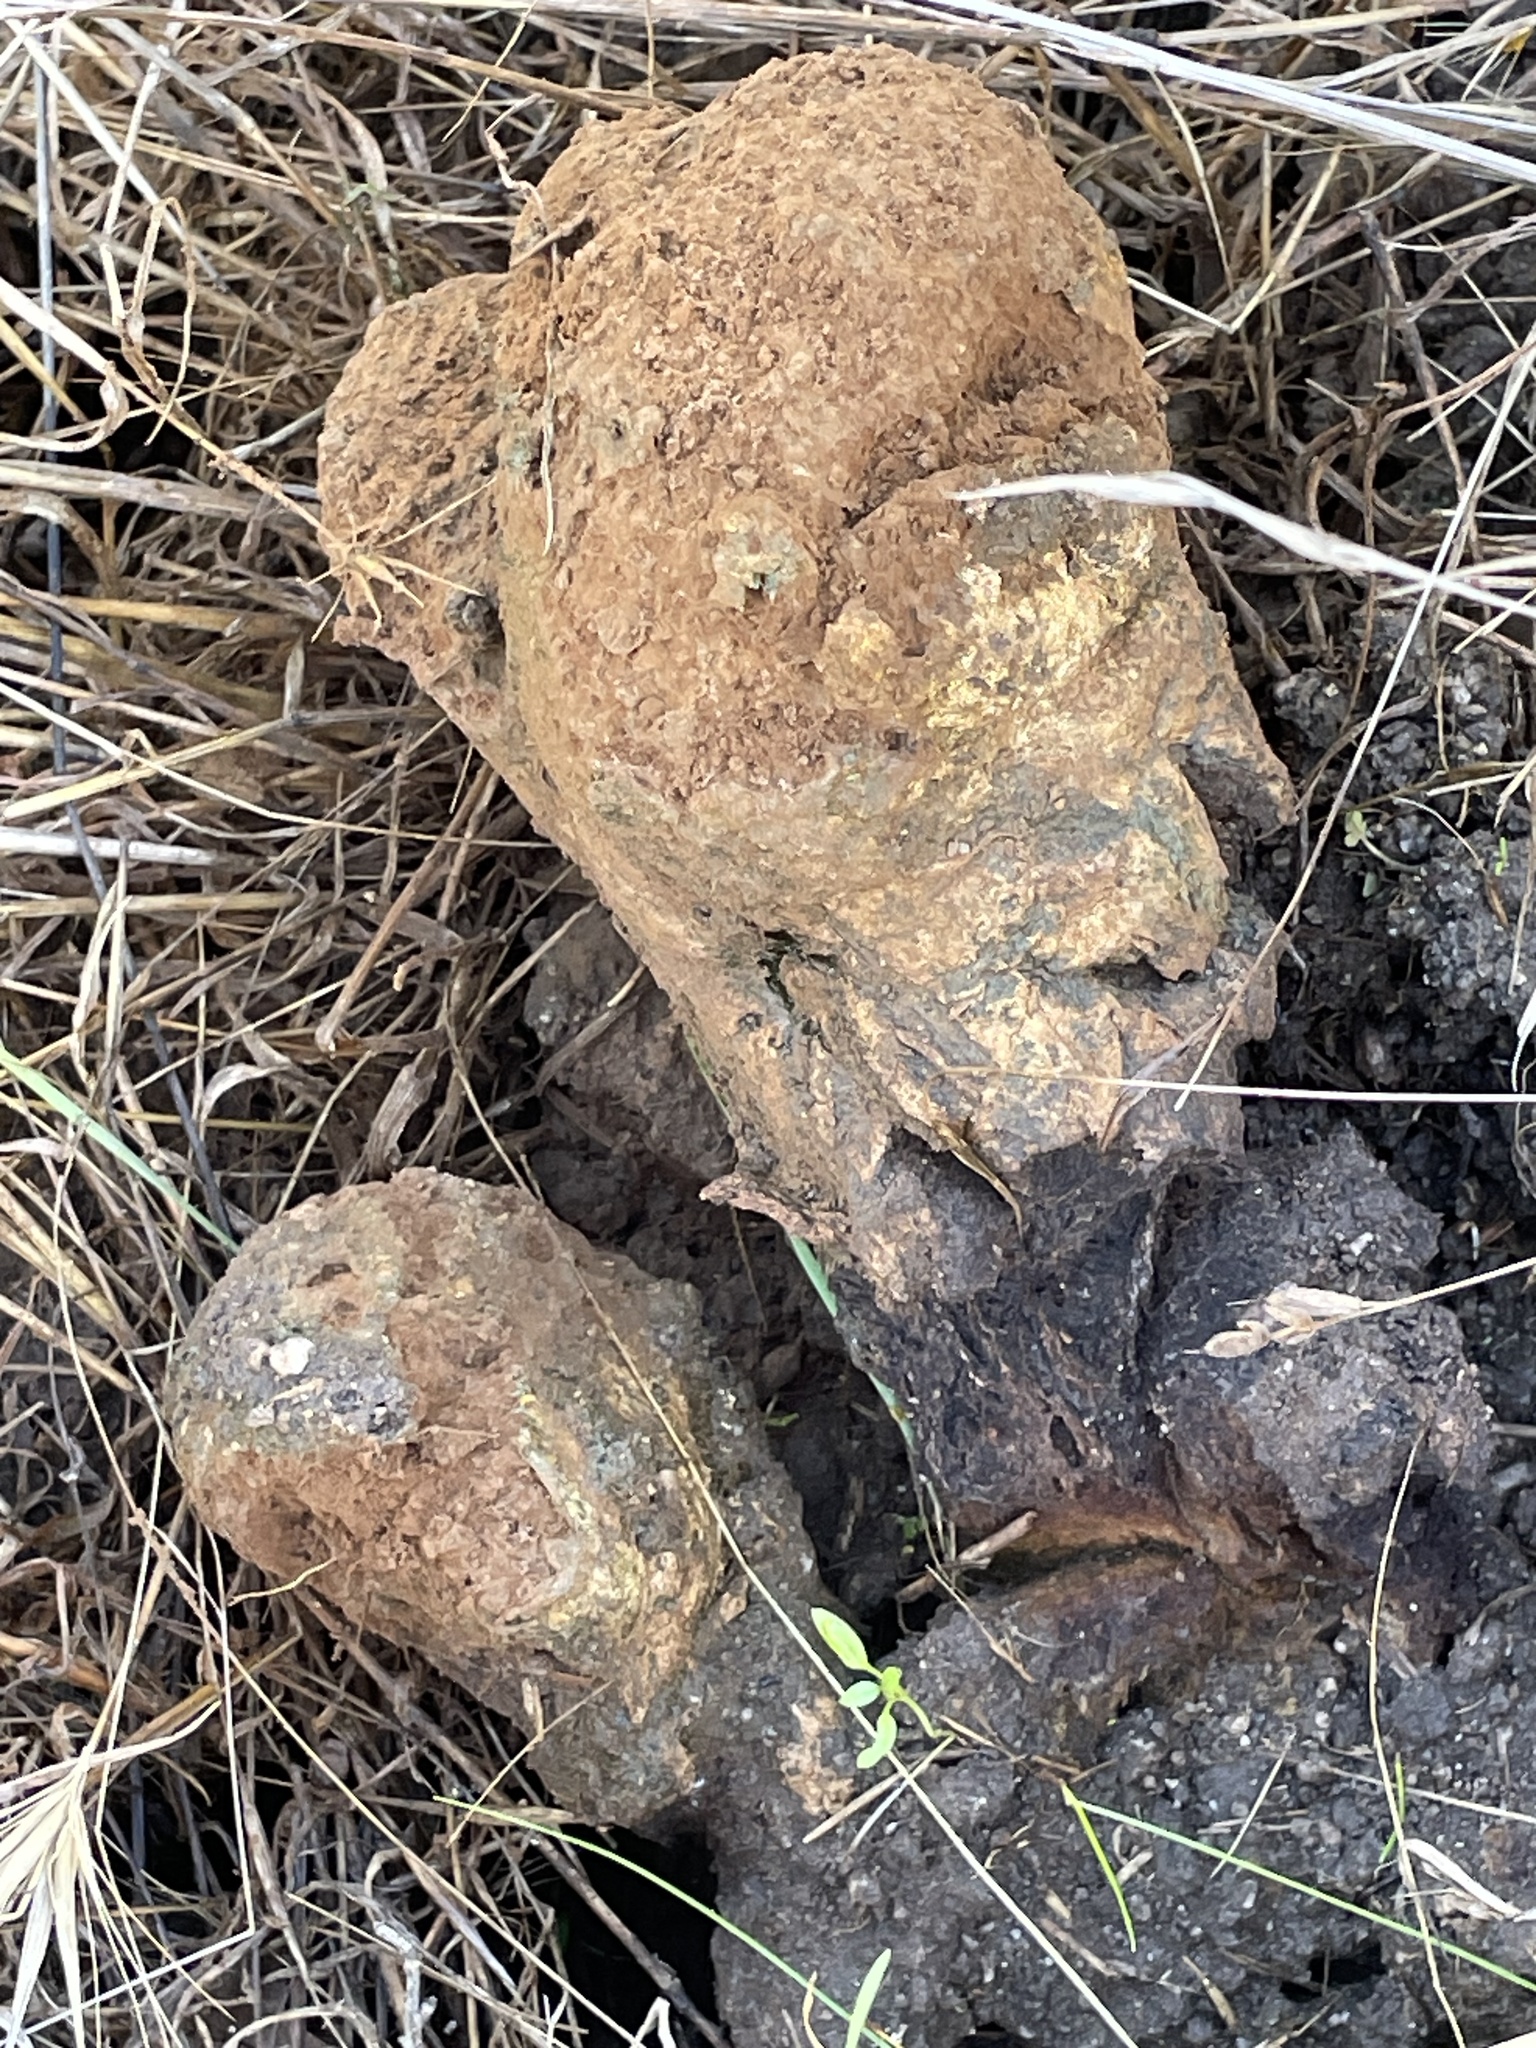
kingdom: Fungi
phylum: Basidiomycota
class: Agaricomycetes
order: Boletales
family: Sclerodermataceae
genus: Pisolithus
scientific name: Pisolithus tinctorius
